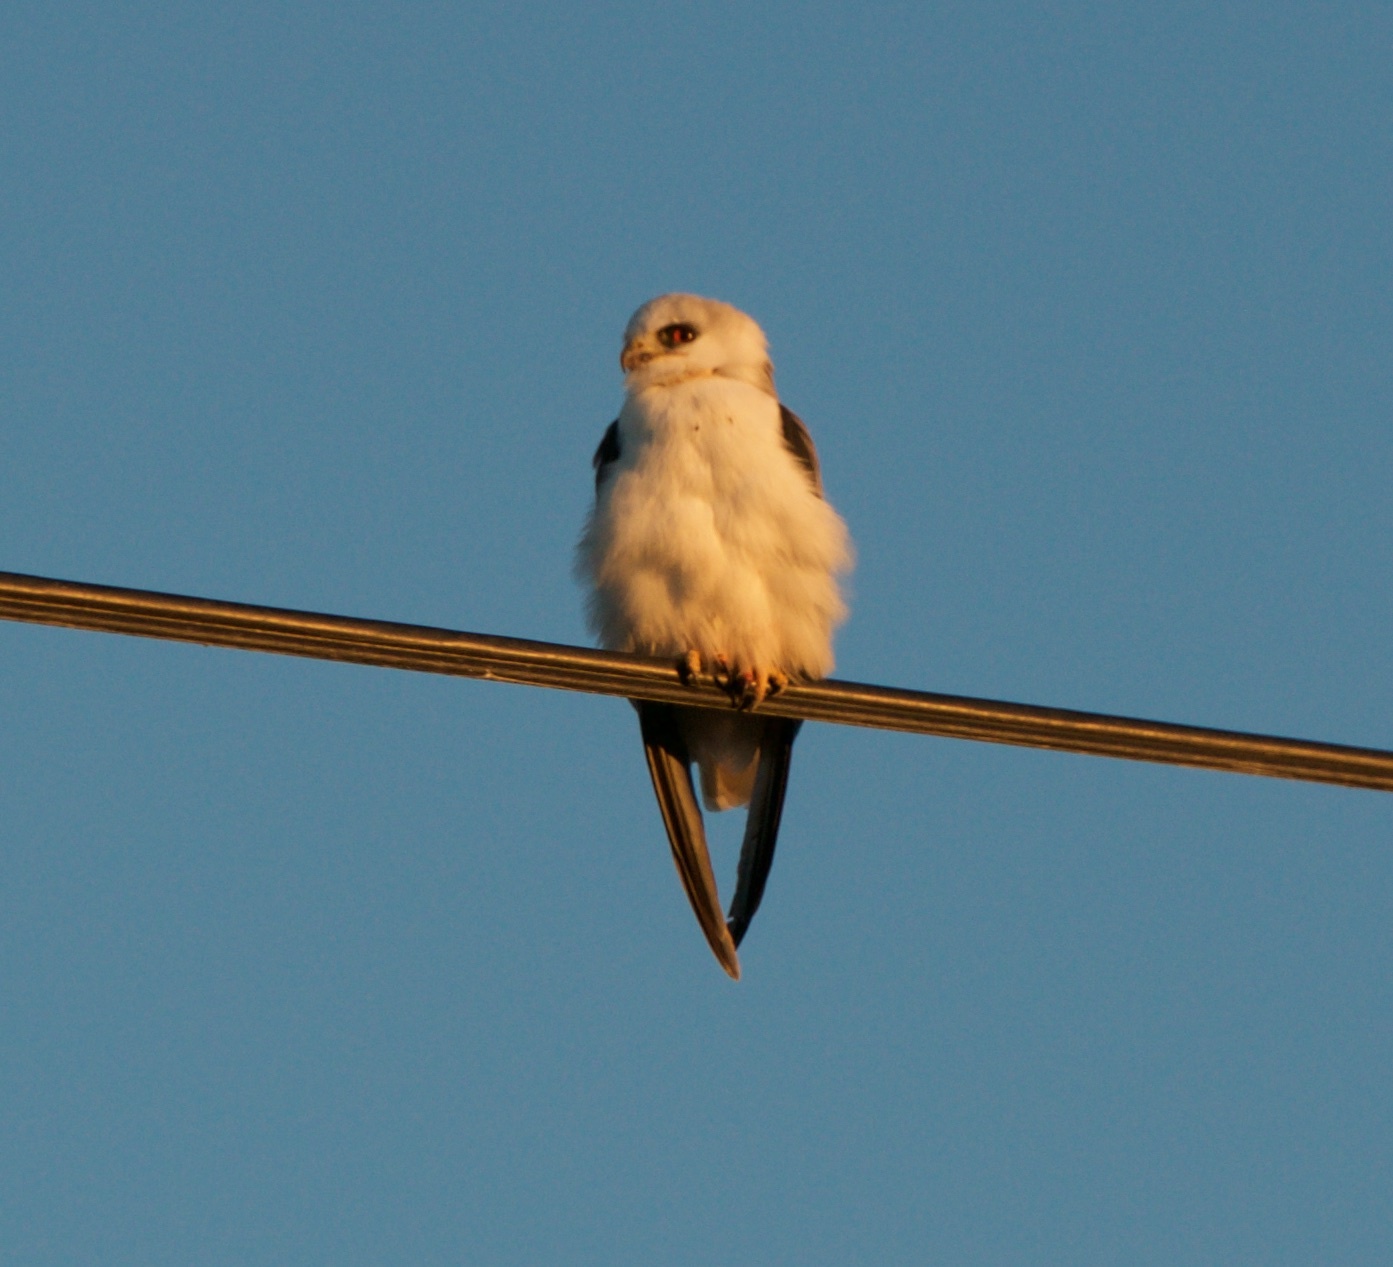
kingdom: Animalia
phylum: Chordata
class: Aves
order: Accipitriformes
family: Accipitridae
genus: Elanus
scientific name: Elanus leucurus
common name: White-tailed kite
